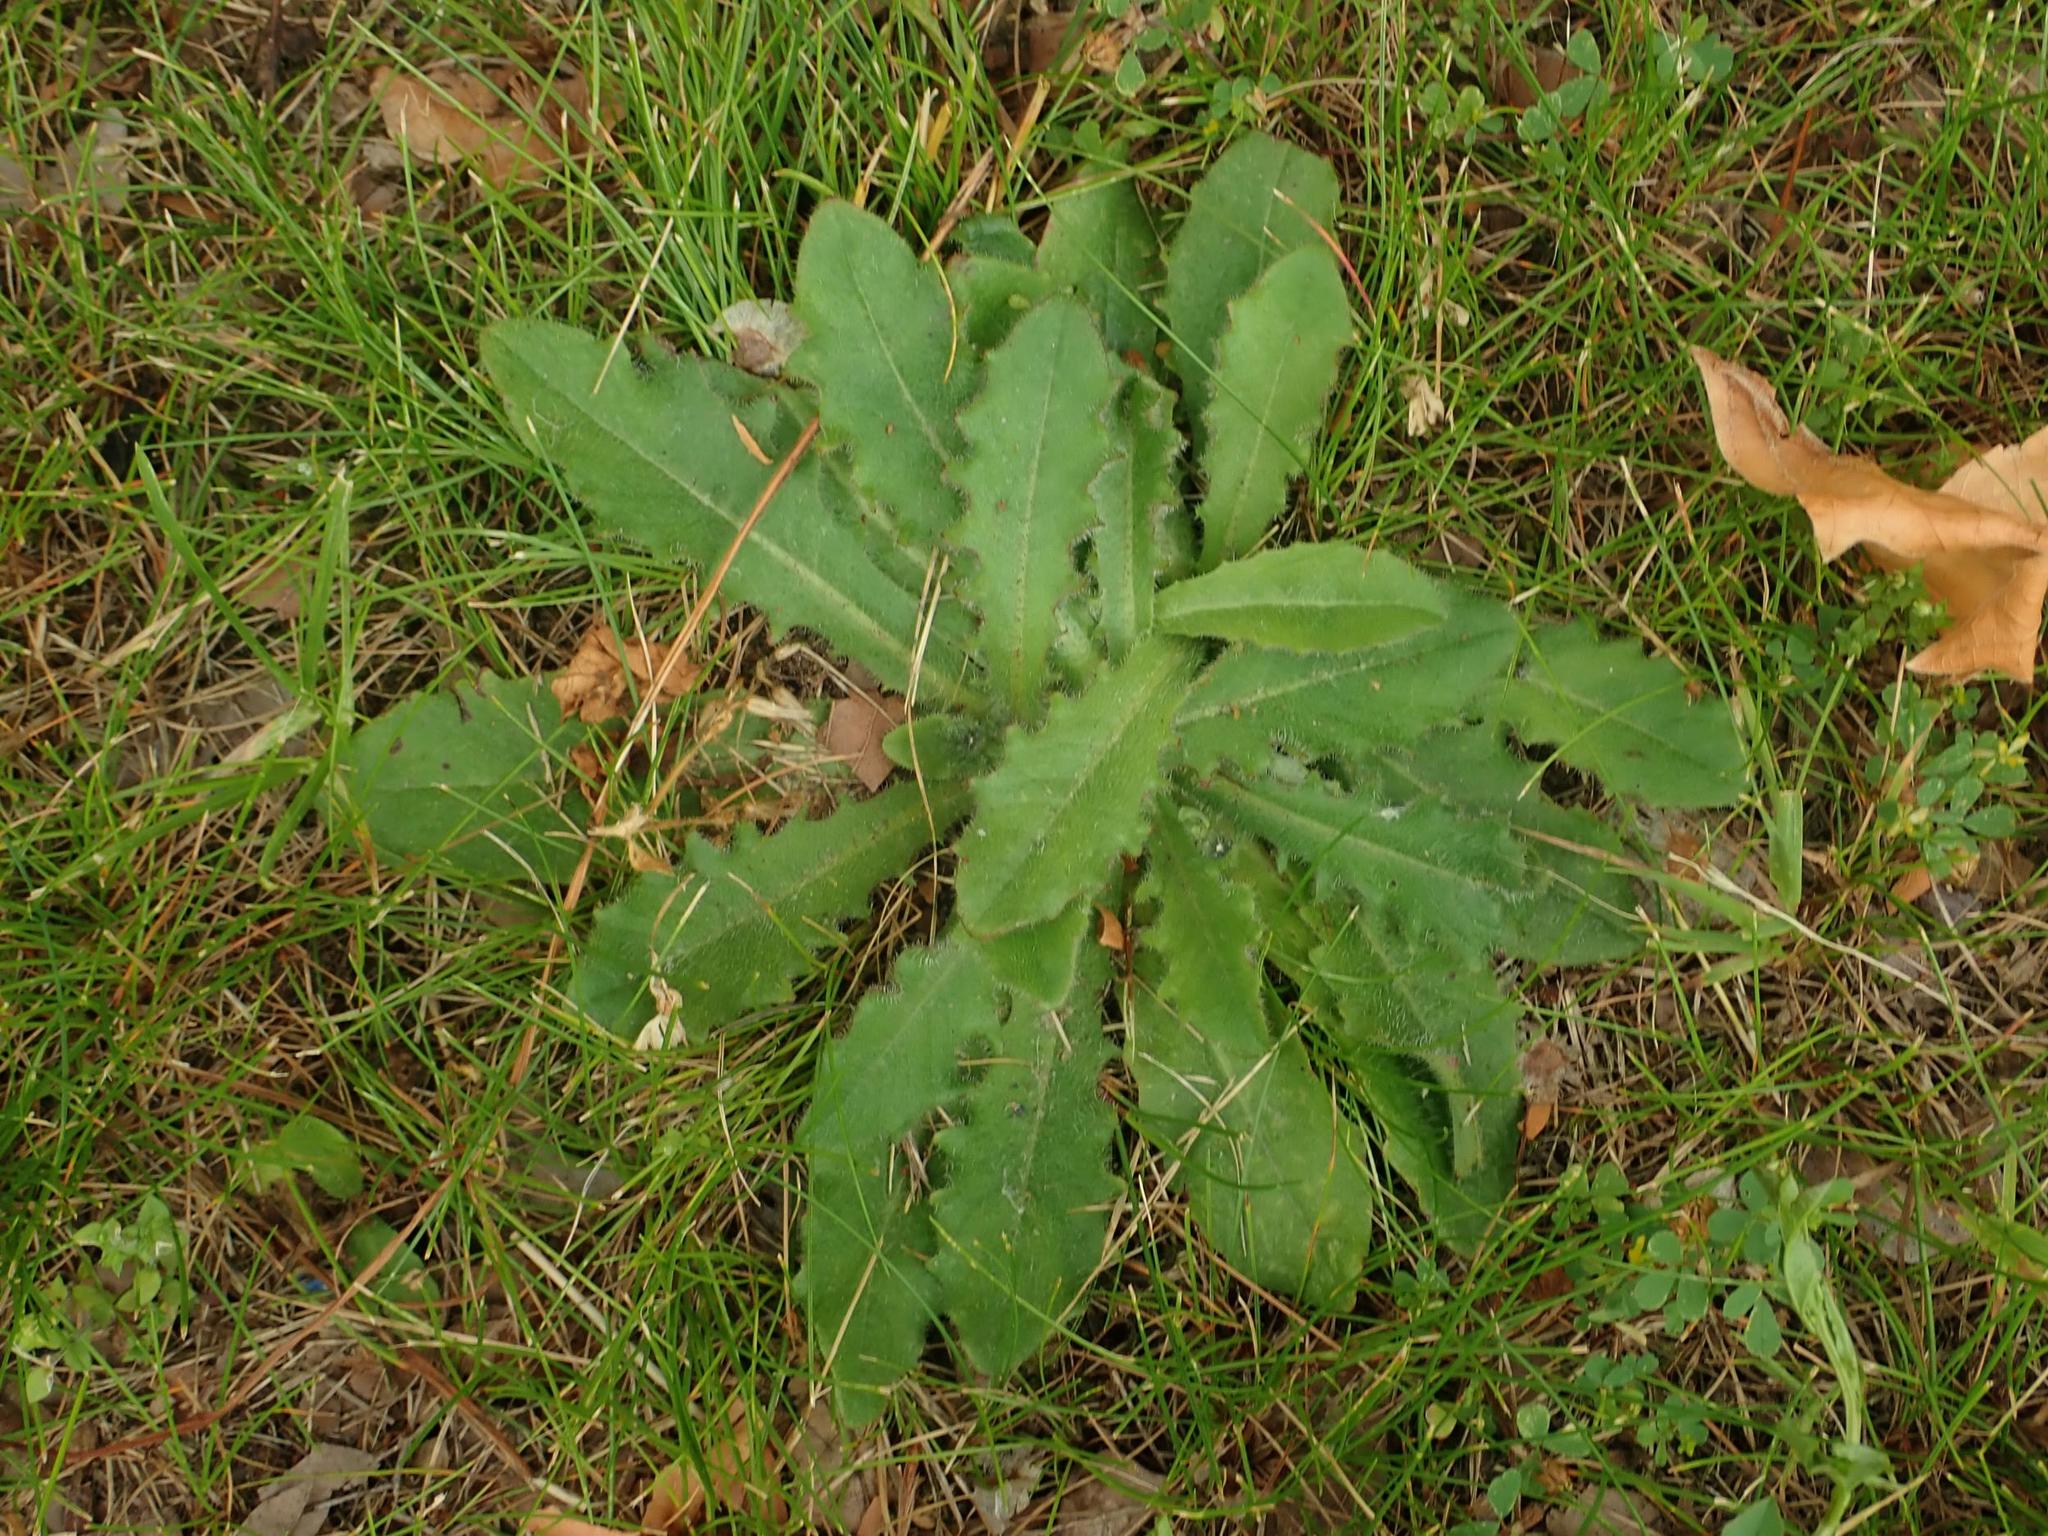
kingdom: Plantae
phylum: Tracheophyta
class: Magnoliopsida
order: Asterales
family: Asteraceae
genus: Hypochaeris
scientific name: Hypochaeris radicata
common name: Flatweed
